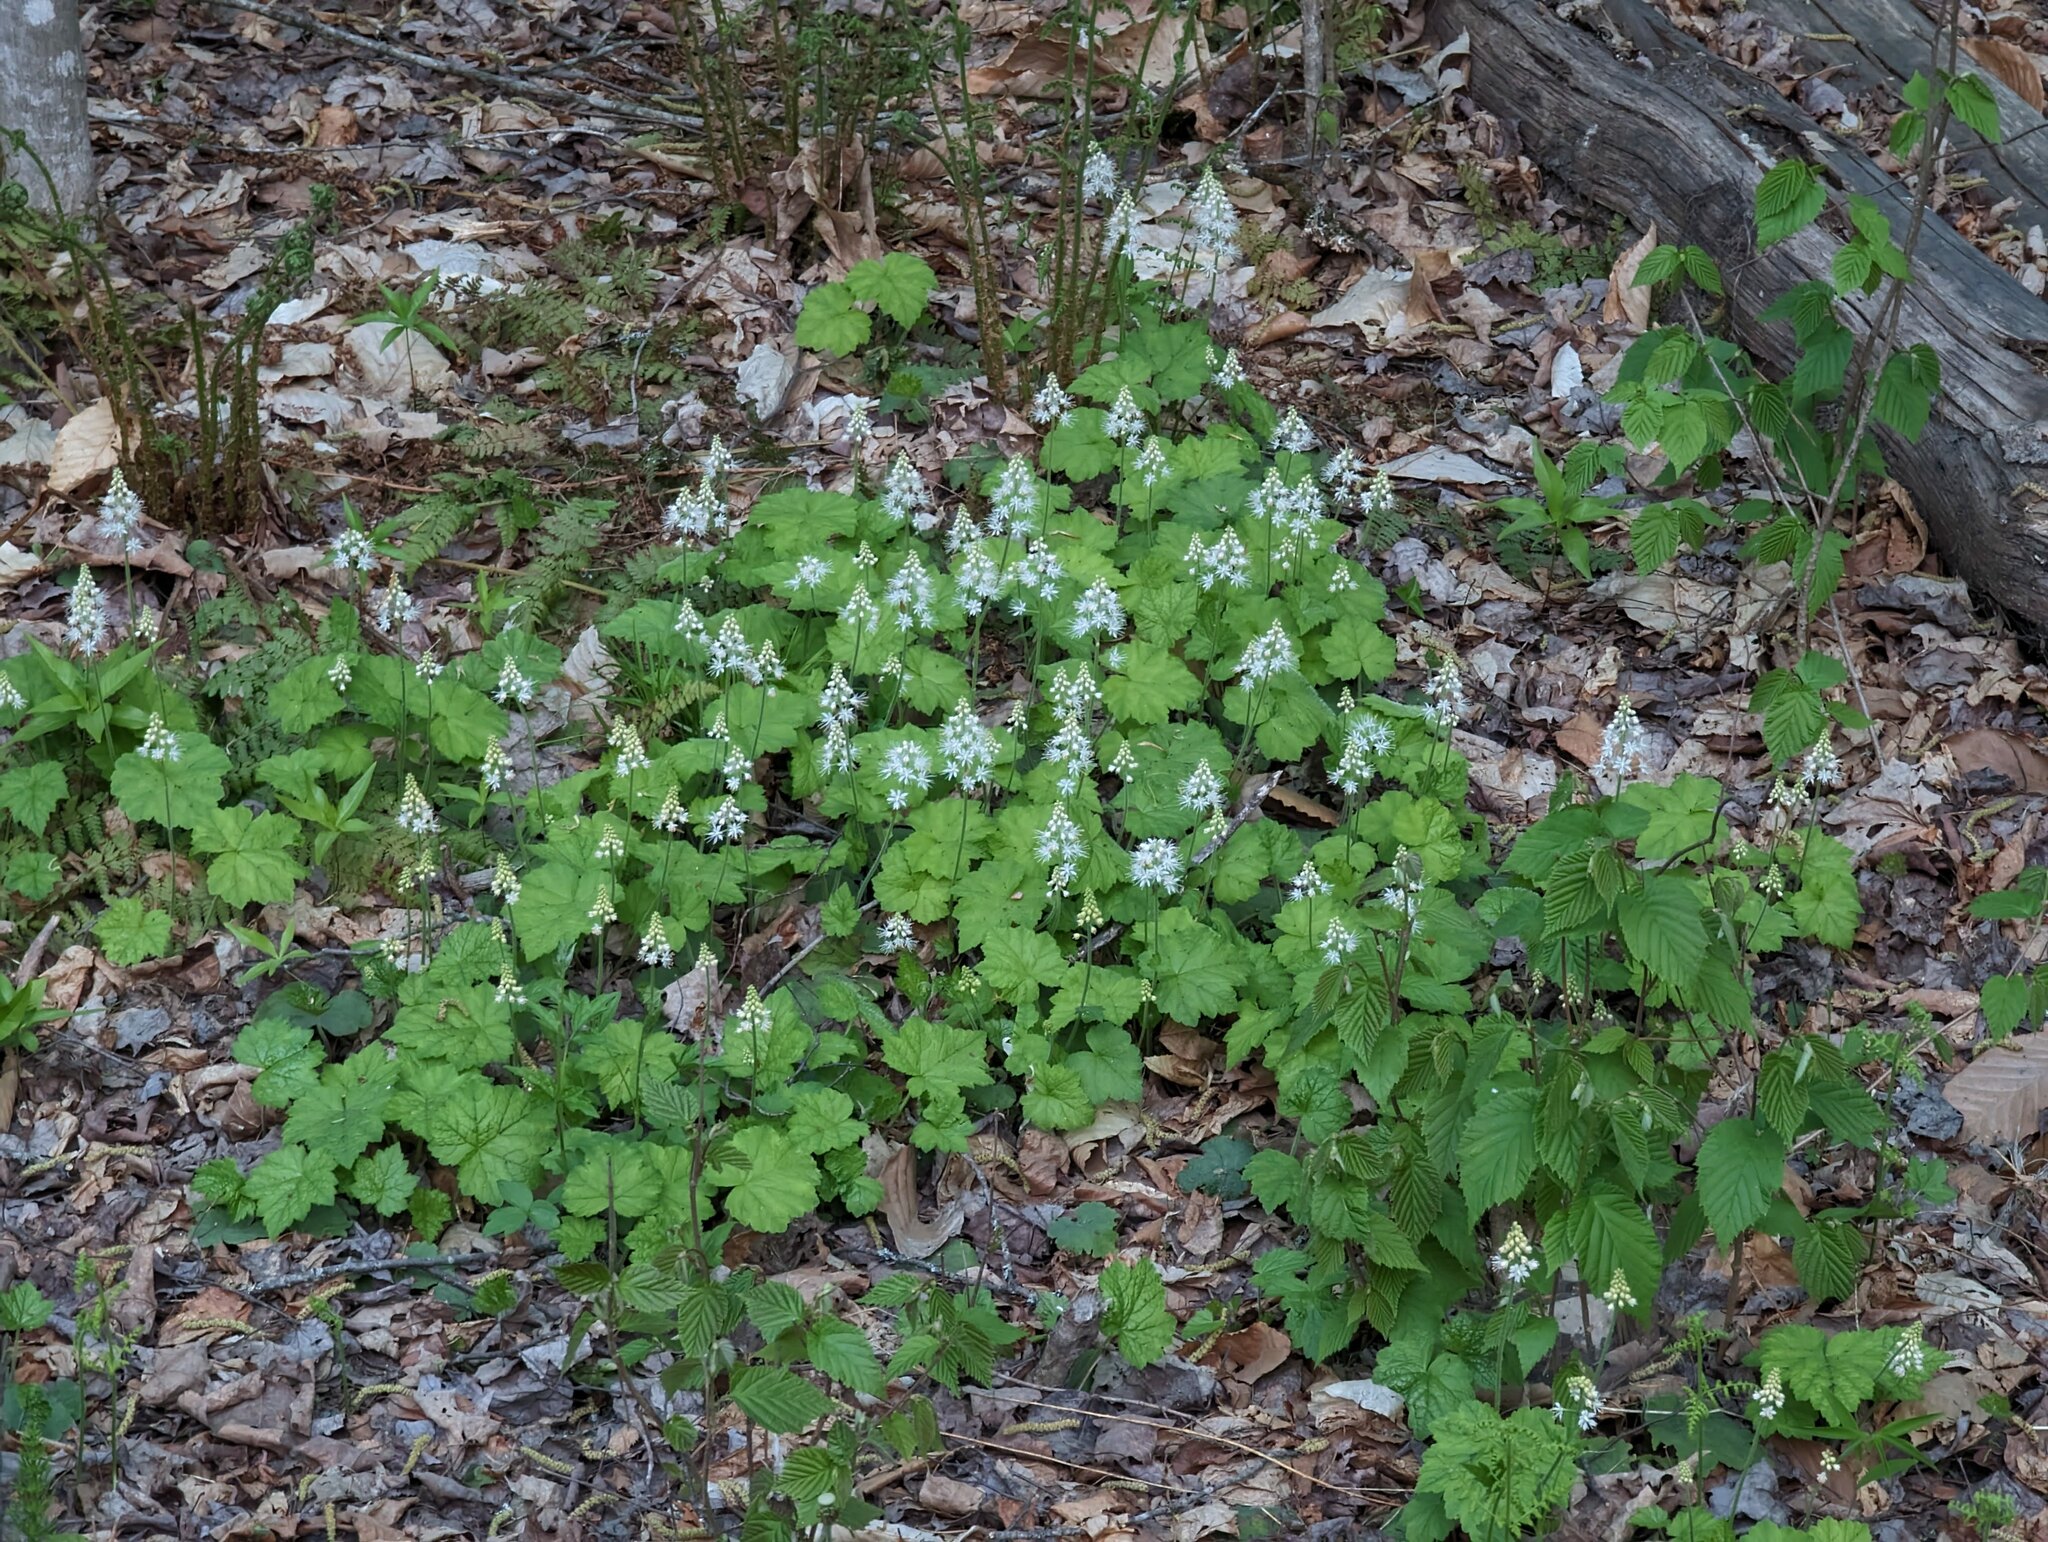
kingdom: Plantae
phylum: Tracheophyta
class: Magnoliopsida
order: Saxifragales
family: Saxifragaceae
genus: Tiarella
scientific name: Tiarella stolonifera
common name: Stoloniferous foamflower
